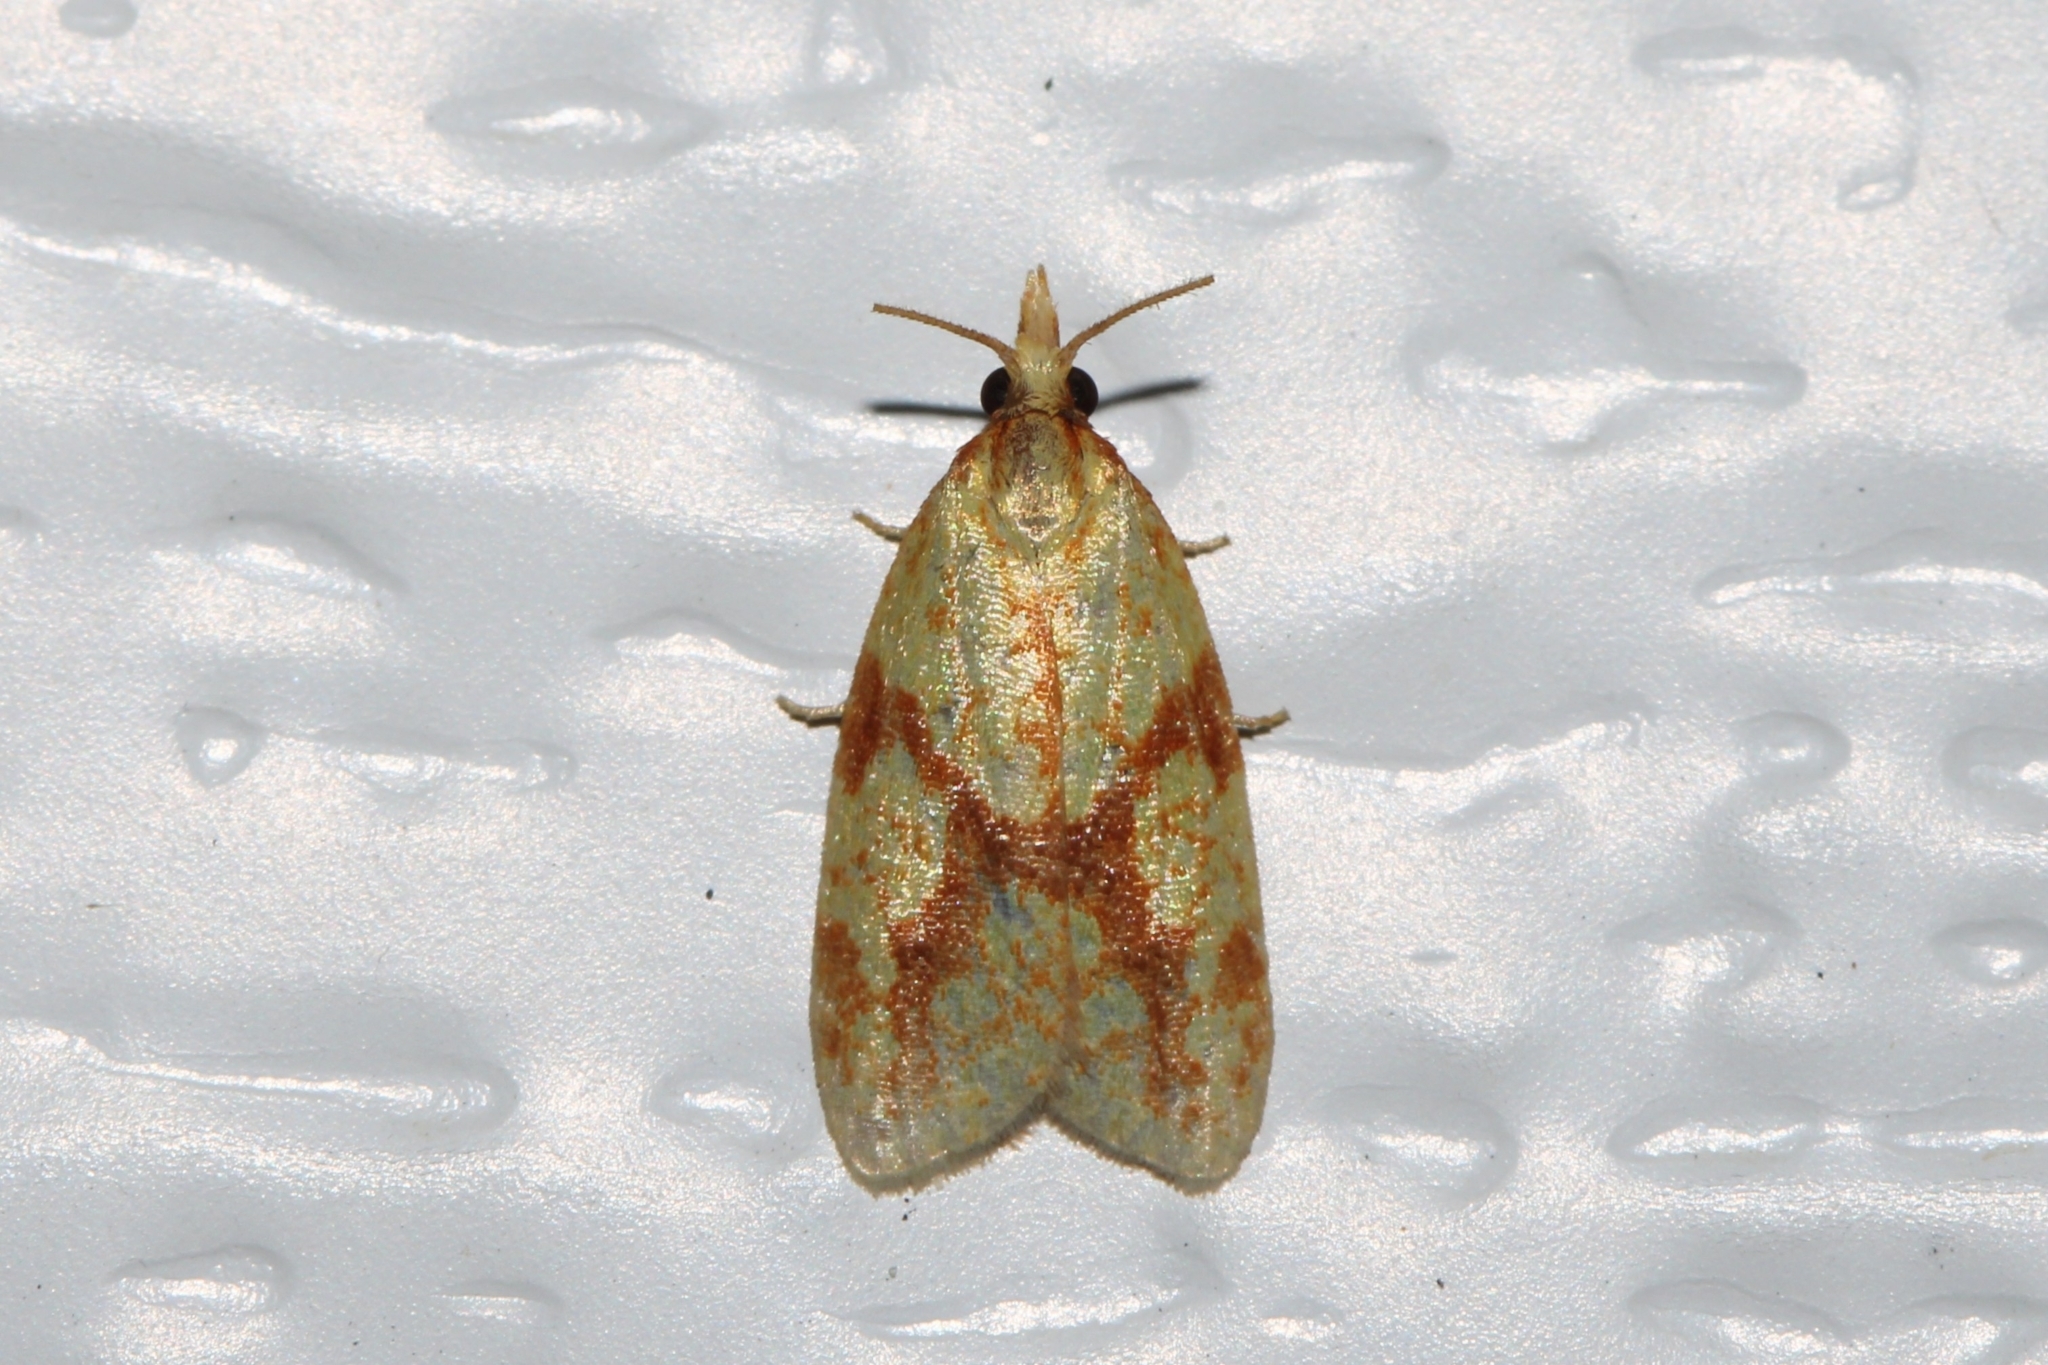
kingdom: Animalia
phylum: Arthropoda
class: Insecta
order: Lepidoptera
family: Tortricidae
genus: Sparganothis
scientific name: Sparganothis sulfureana
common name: Sparganothis fruitworm moth
